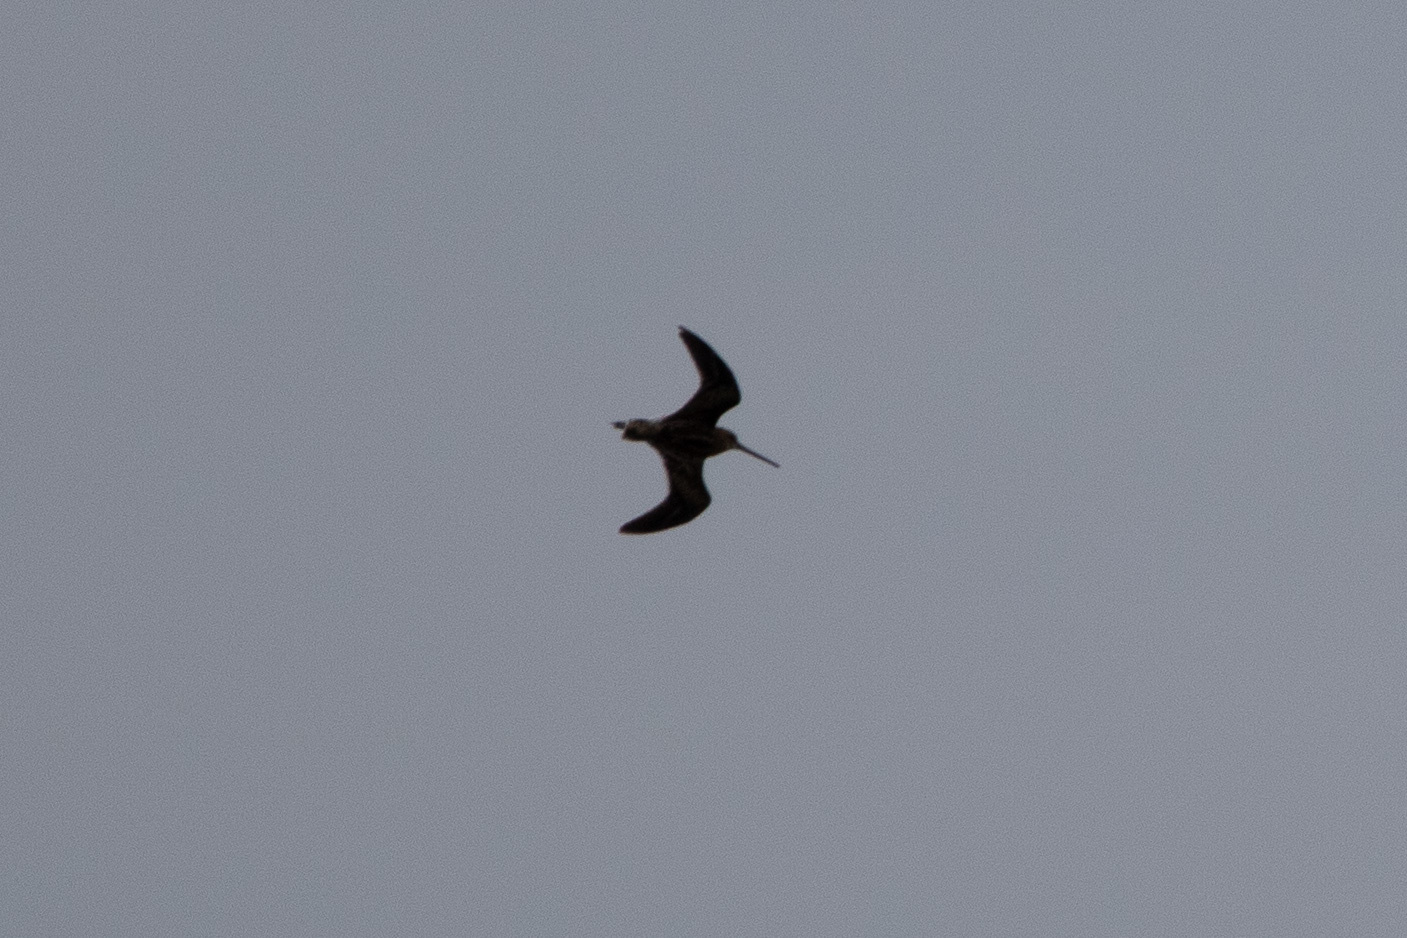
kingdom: Animalia
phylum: Chordata
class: Aves
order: Charadriiformes
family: Scolopacidae
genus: Gallinago
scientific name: Gallinago gallinago
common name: Common snipe
